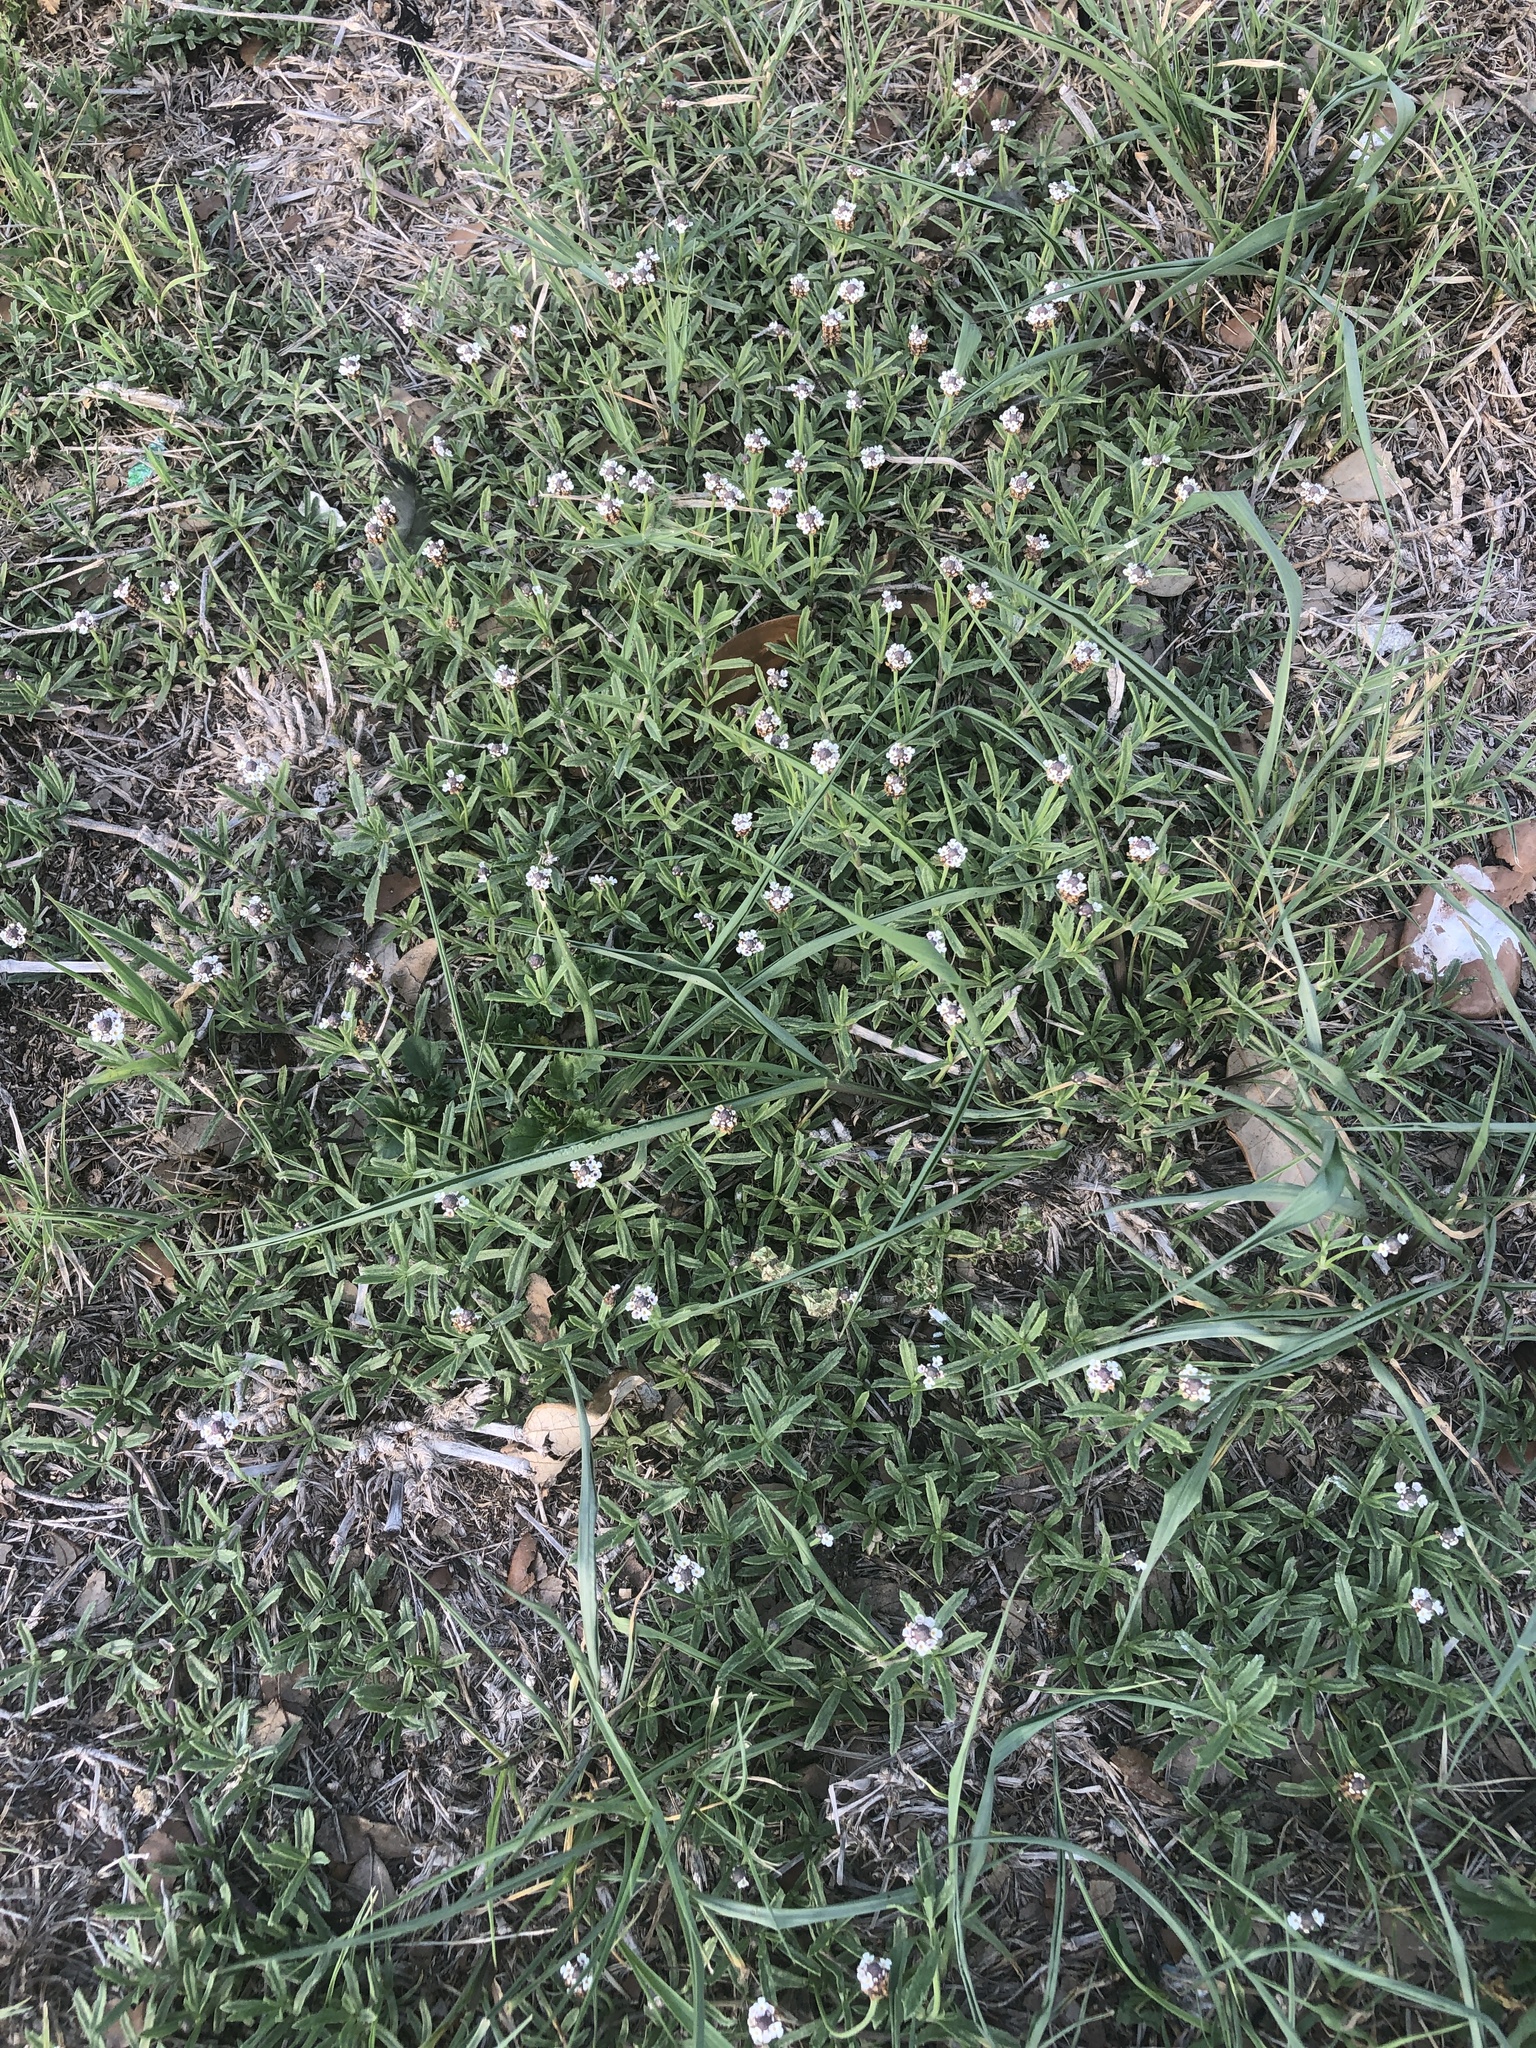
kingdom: Plantae
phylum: Tracheophyta
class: Magnoliopsida
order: Lamiales
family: Verbenaceae
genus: Phyla
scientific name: Phyla nodiflora
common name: Frogfruit
